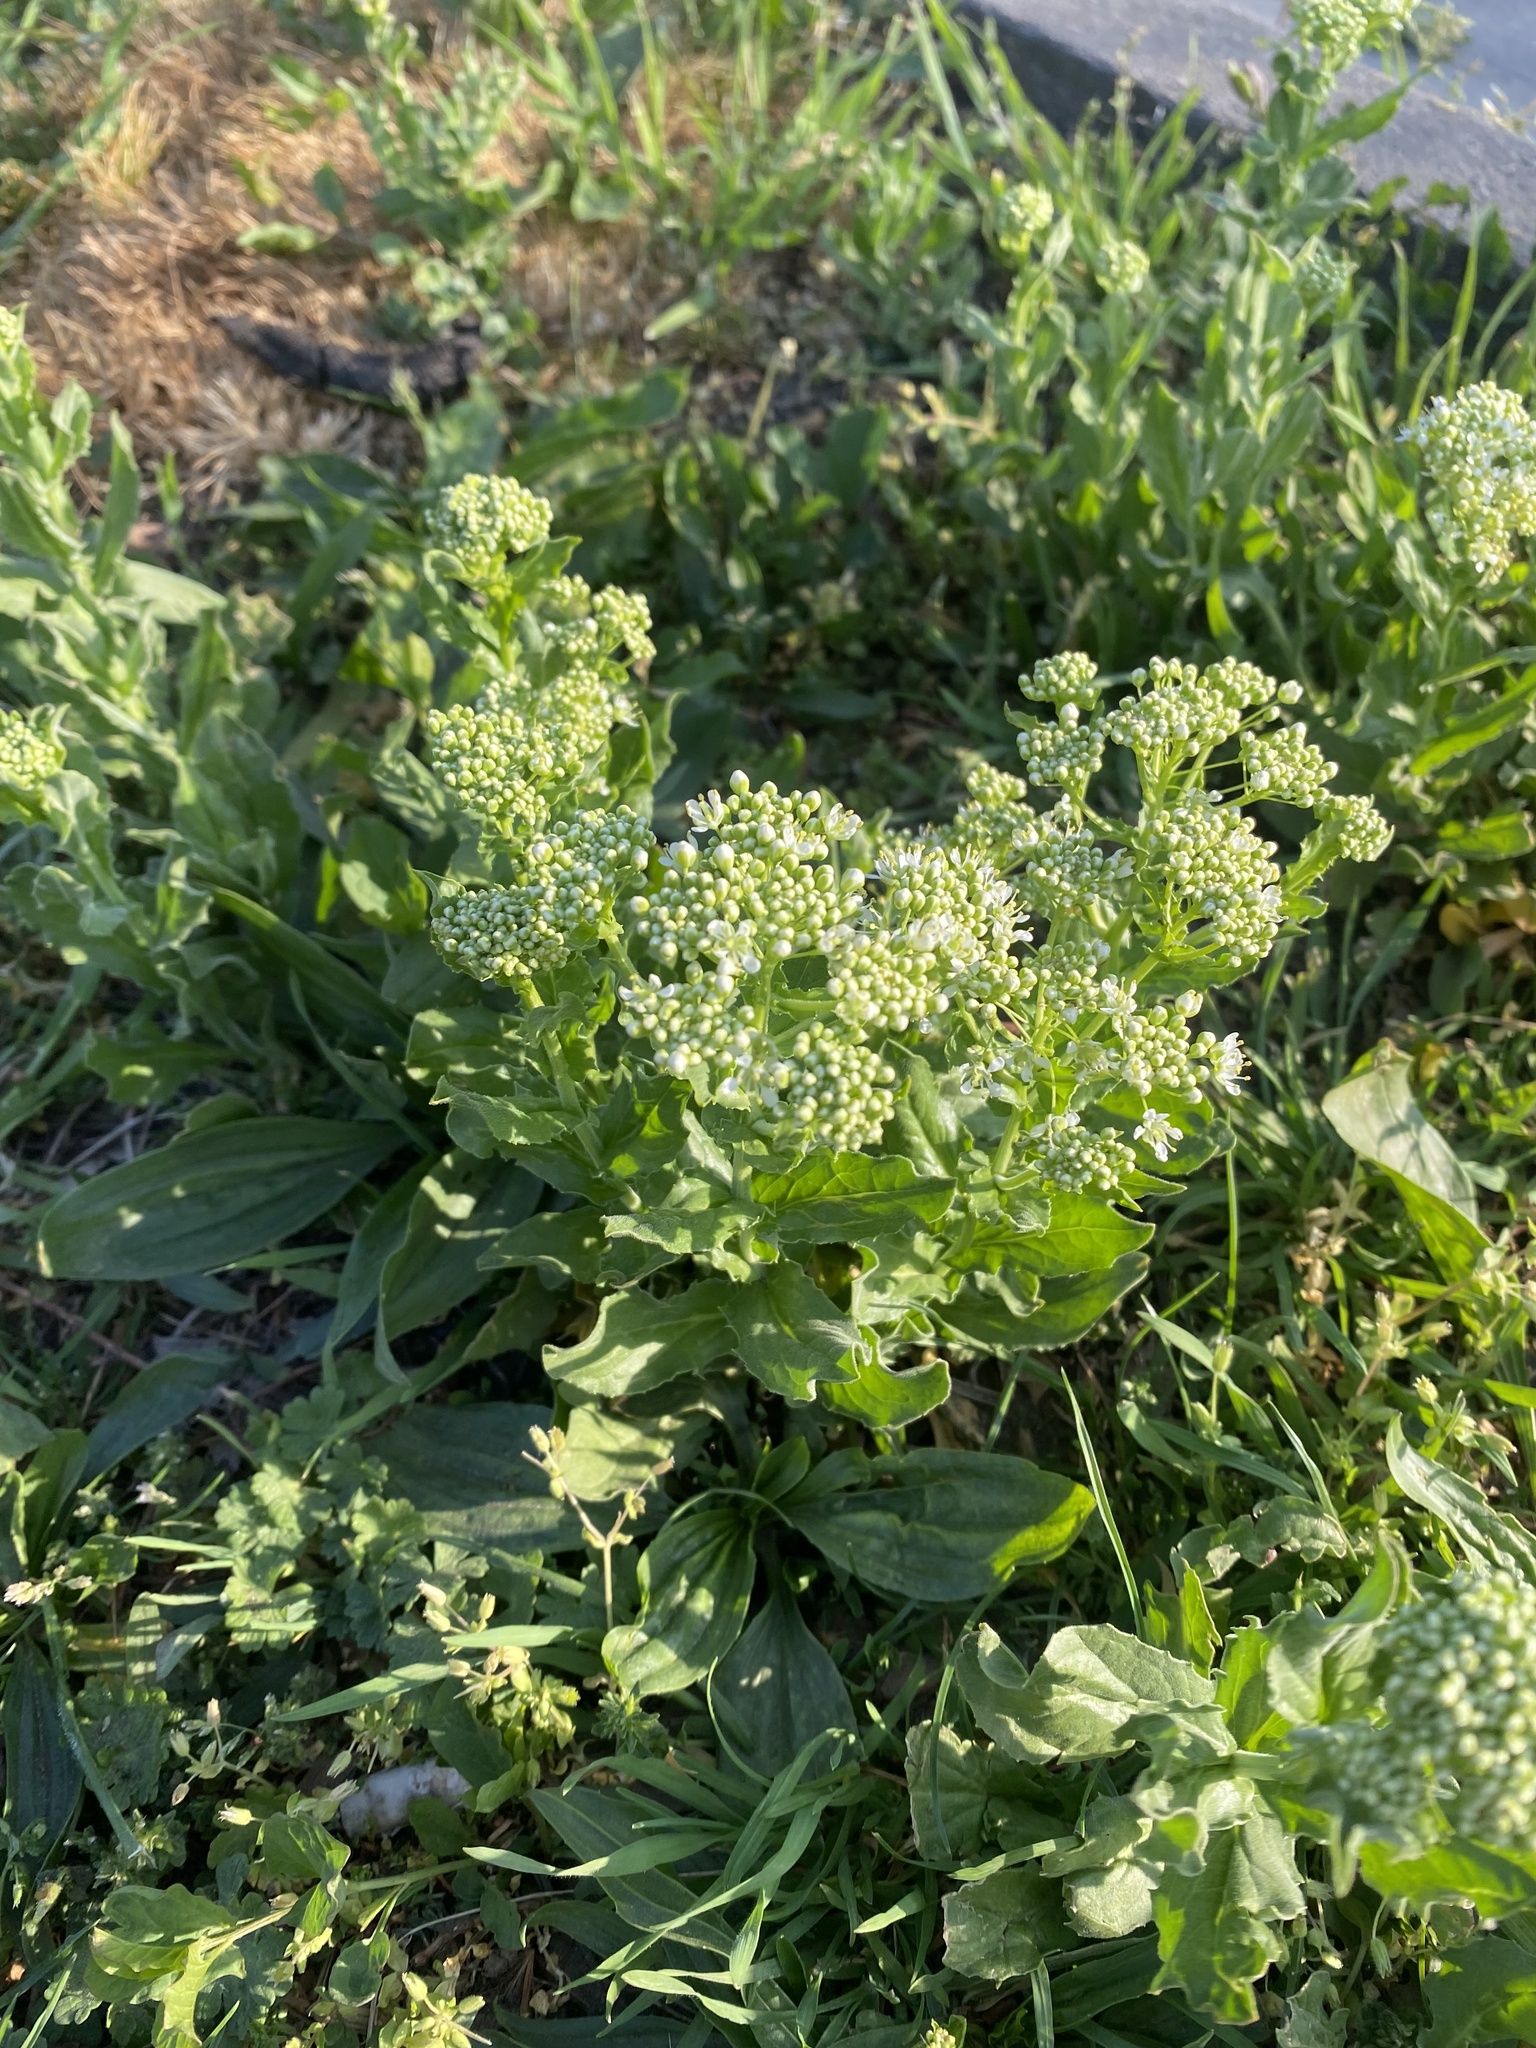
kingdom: Plantae
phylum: Tracheophyta
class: Magnoliopsida
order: Brassicales
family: Brassicaceae
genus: Lepidium
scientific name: Lepidium draba
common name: Hoary cress
